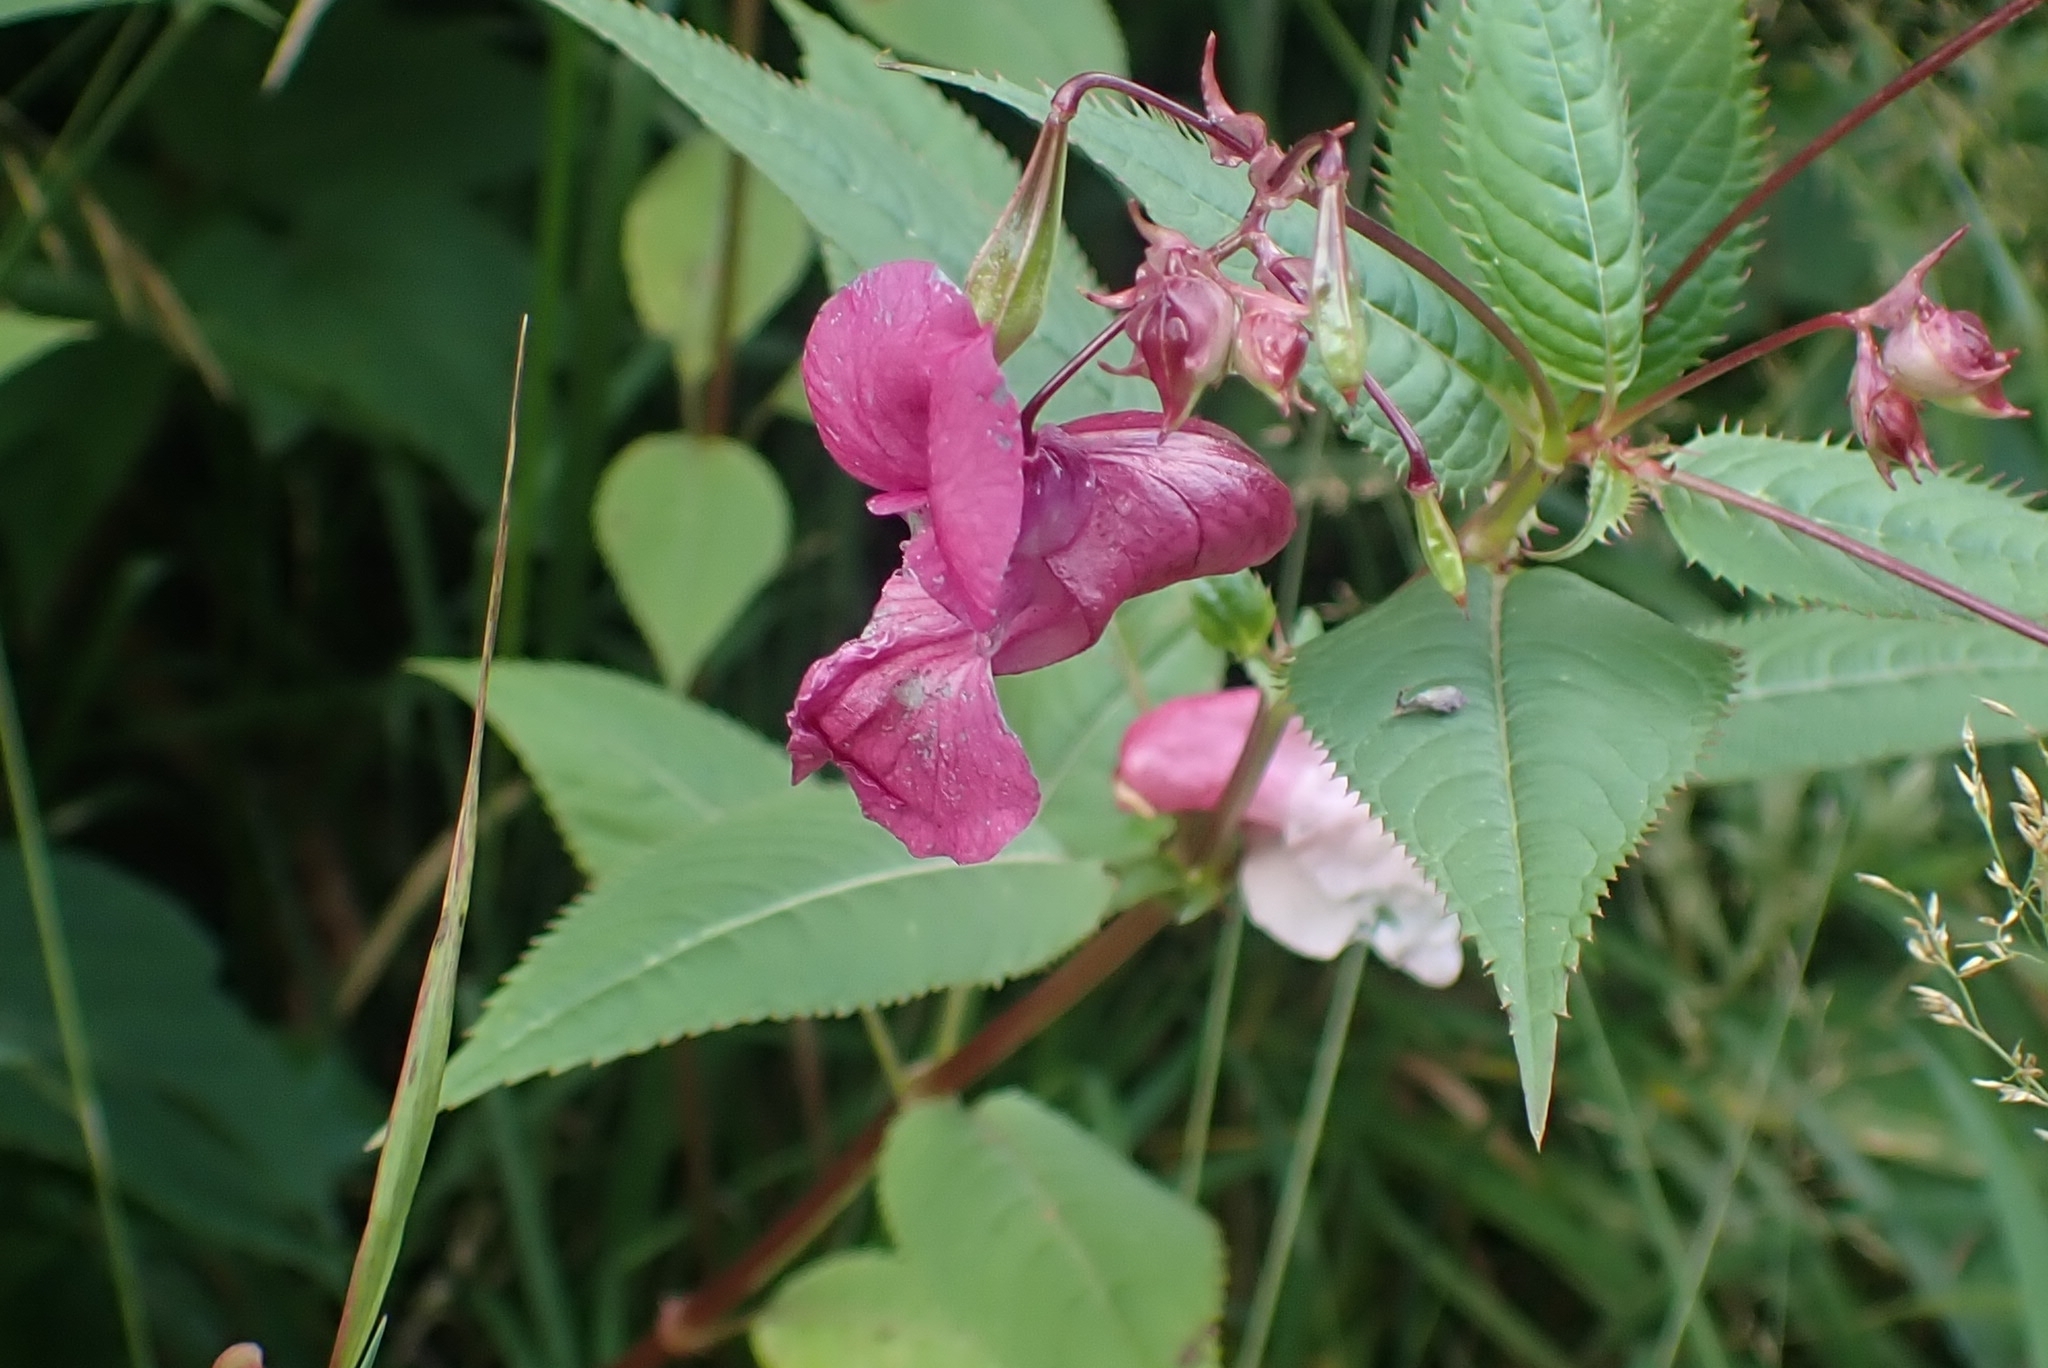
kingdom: Plantae
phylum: Tracheophyta
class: Magnoliopsida
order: Ericales
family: Balsaminaceae
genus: Impatiens
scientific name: Impatiens glandulifera
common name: Himalayan balsam
